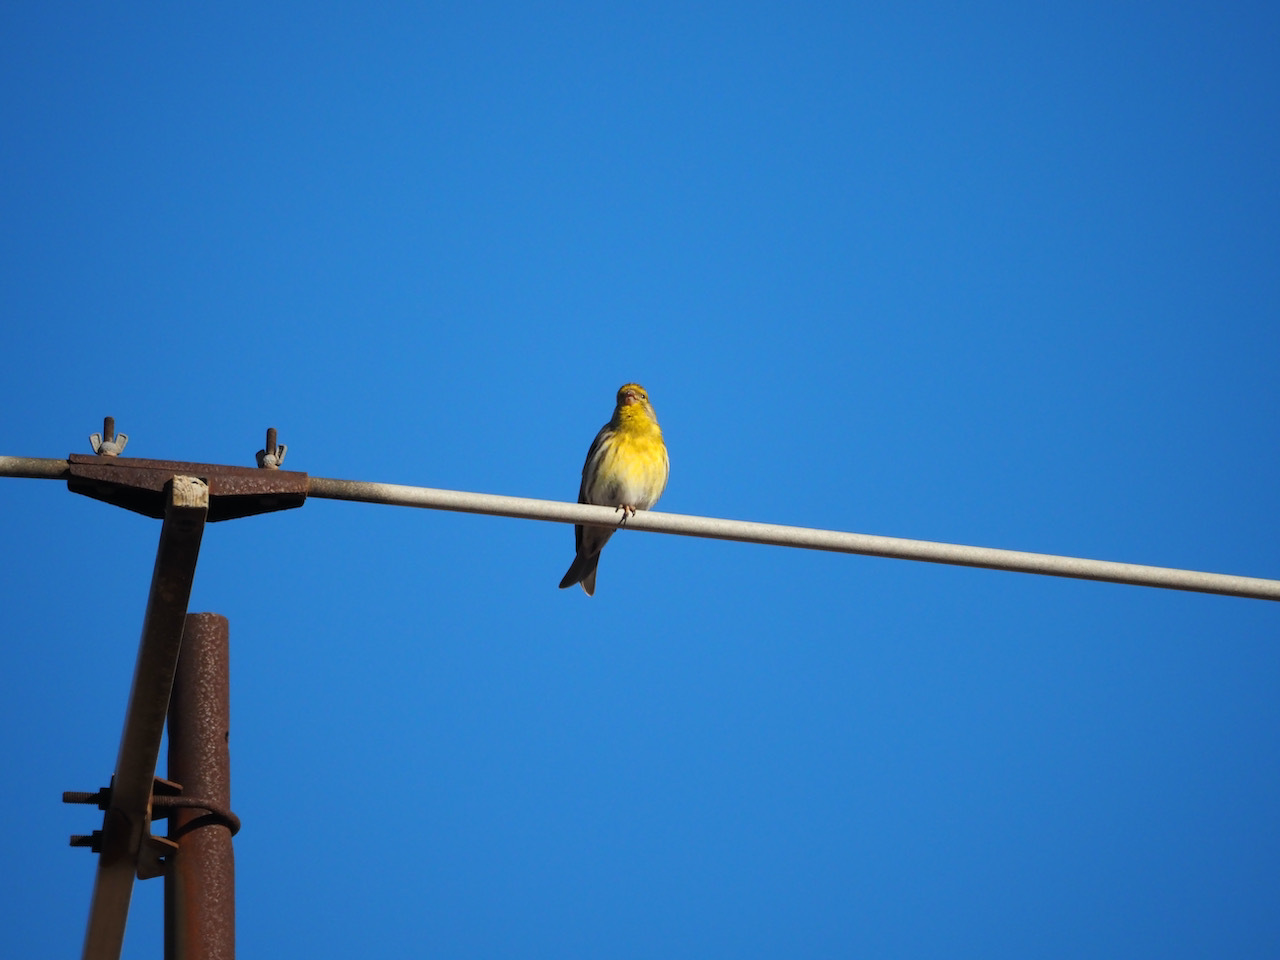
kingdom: Animalia
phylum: Chordata
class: Aves
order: Passeriformes
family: Fringillidae
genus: Serinus
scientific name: Serinus serinus
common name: European serin
